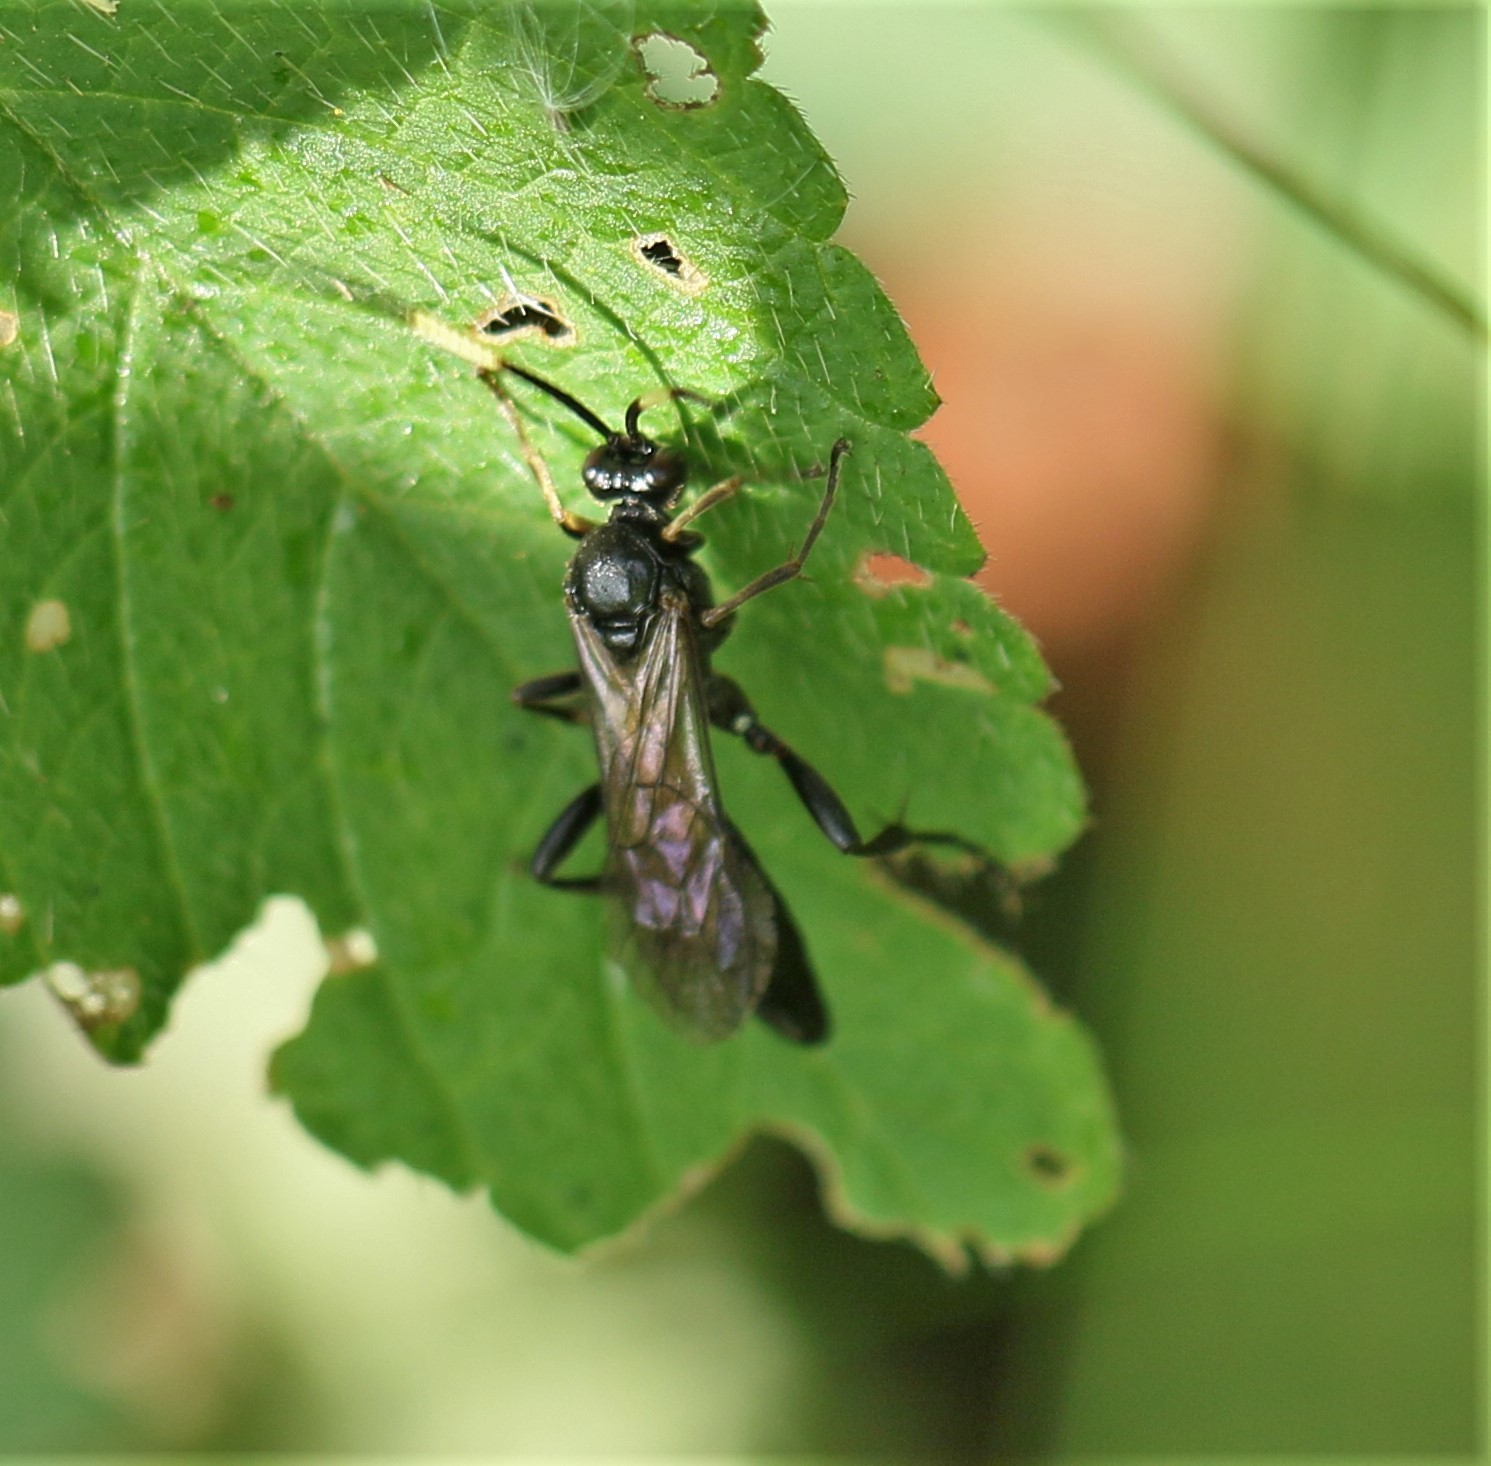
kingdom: Animalia
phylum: Arthropoda
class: Insecta
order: Hymenoptera
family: Ichneumonidae
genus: Cratichneumon
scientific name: Cratichneumon viator
